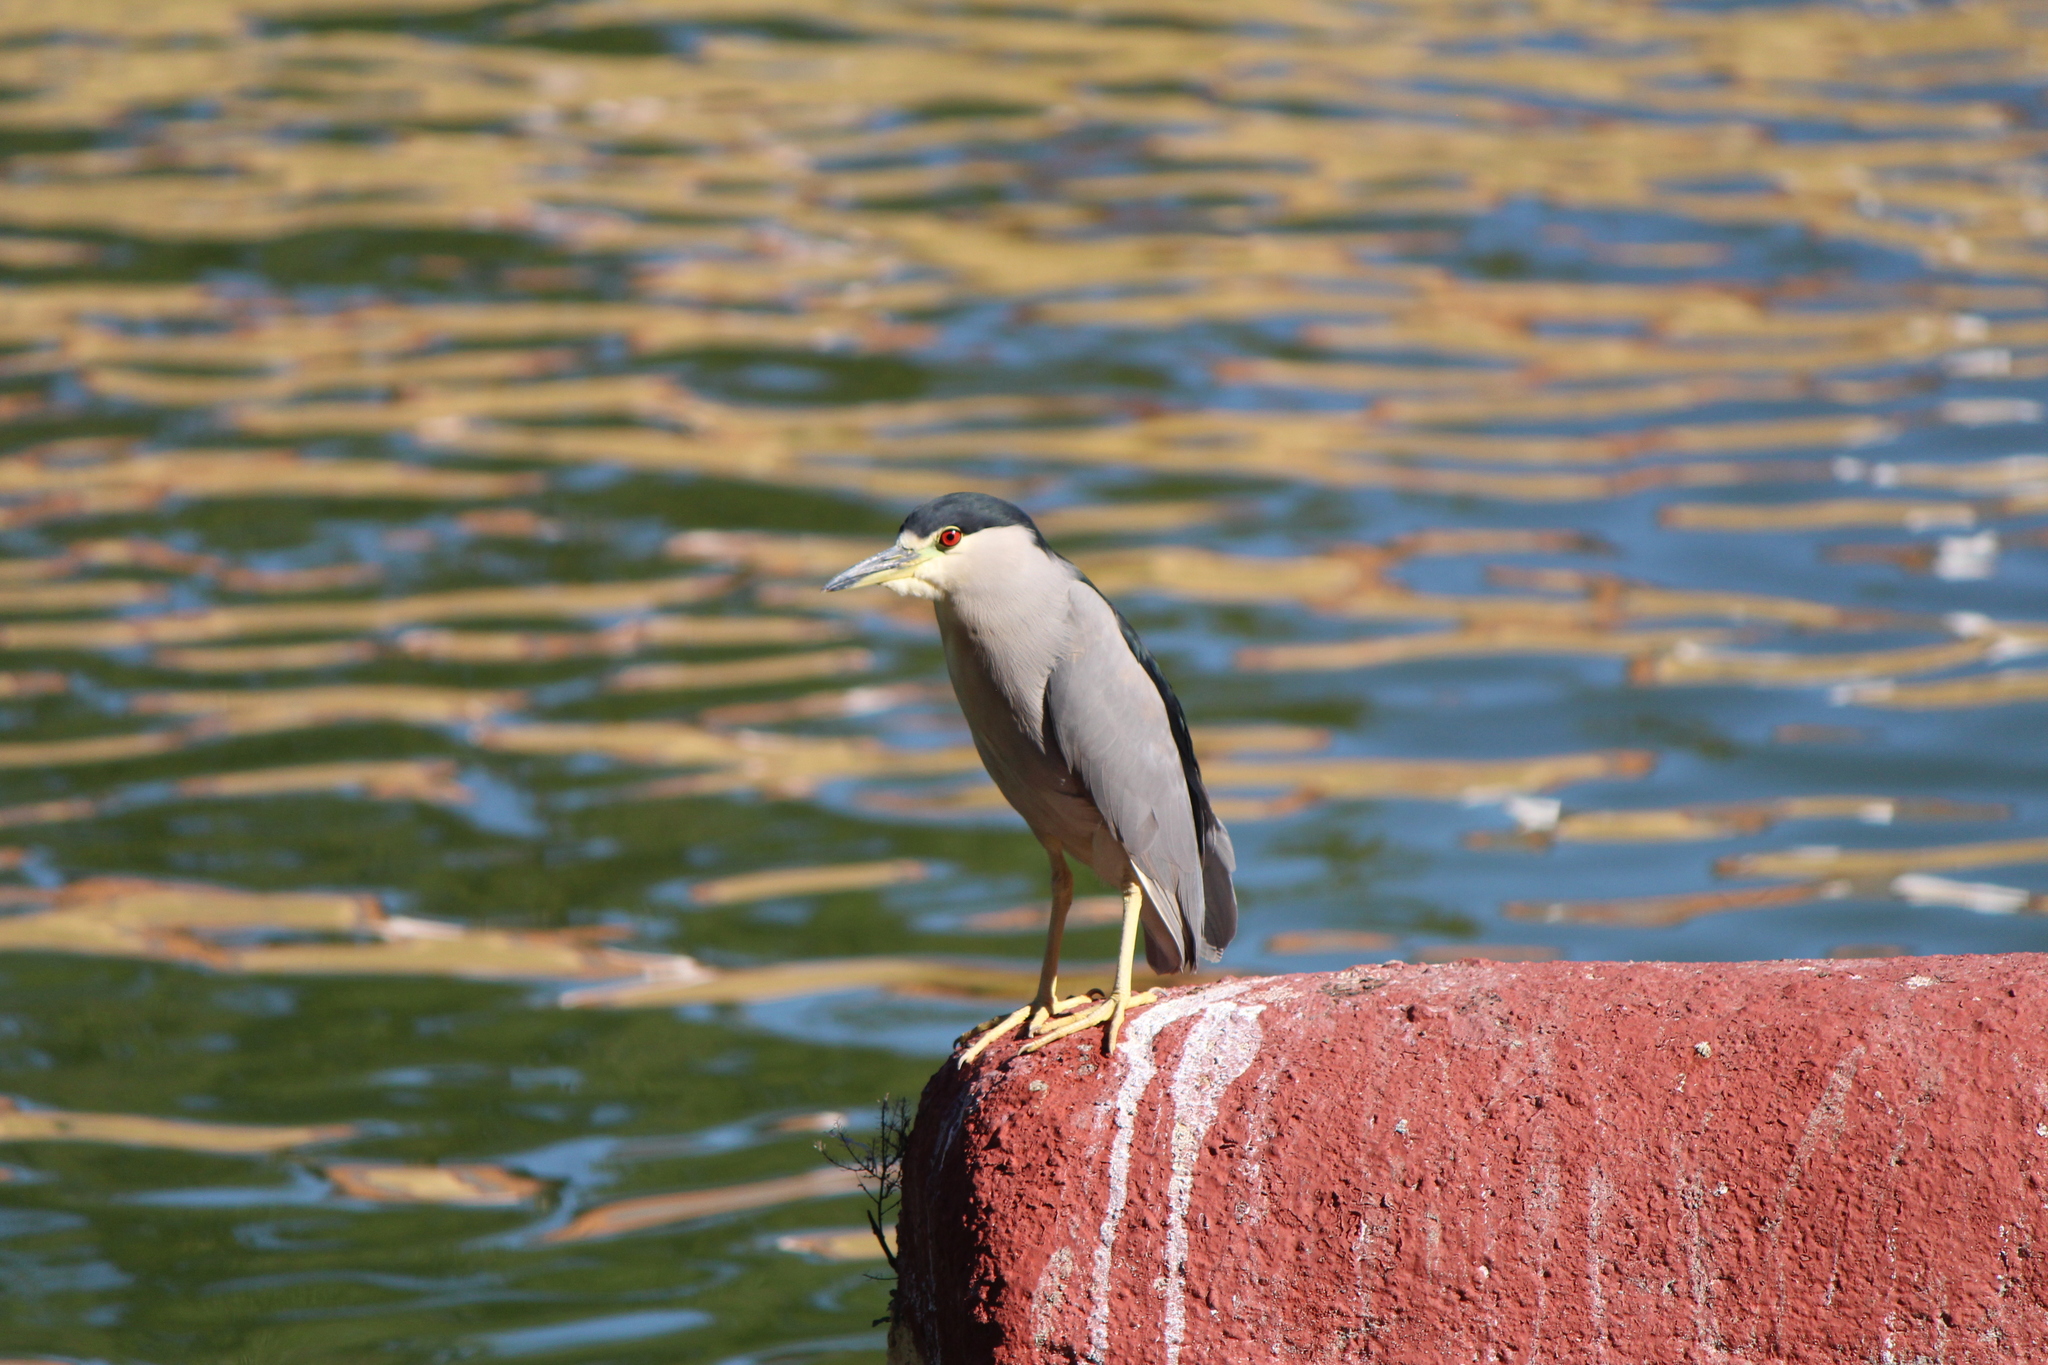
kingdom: Animalia
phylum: Chordata
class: Aves
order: Pelecaniformes
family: Ardeidae
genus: Nycticorax
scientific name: Nycticorax nycticorax
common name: Black-crowned night heron
